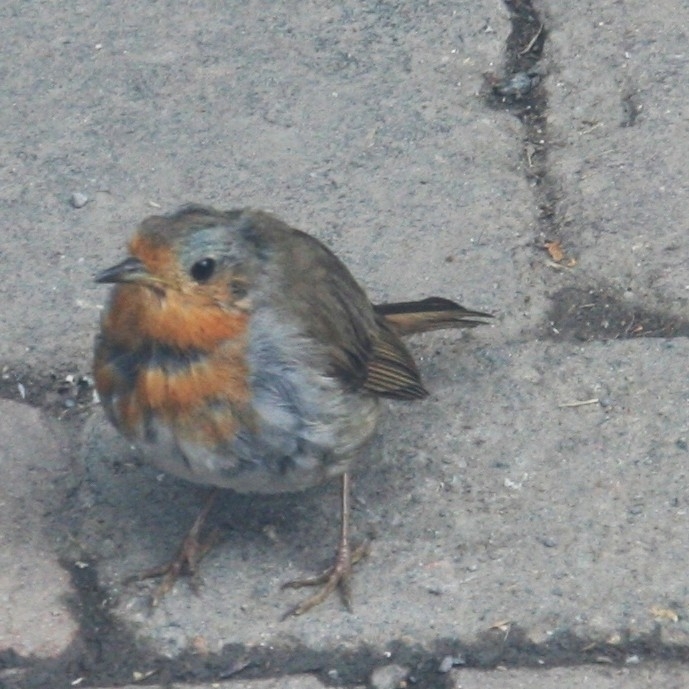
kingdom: Animalia
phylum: Chordata
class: Aves
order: Passeriformes
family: Muscicapidae
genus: Erithacus
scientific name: Erithacus rubecula
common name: European robin
